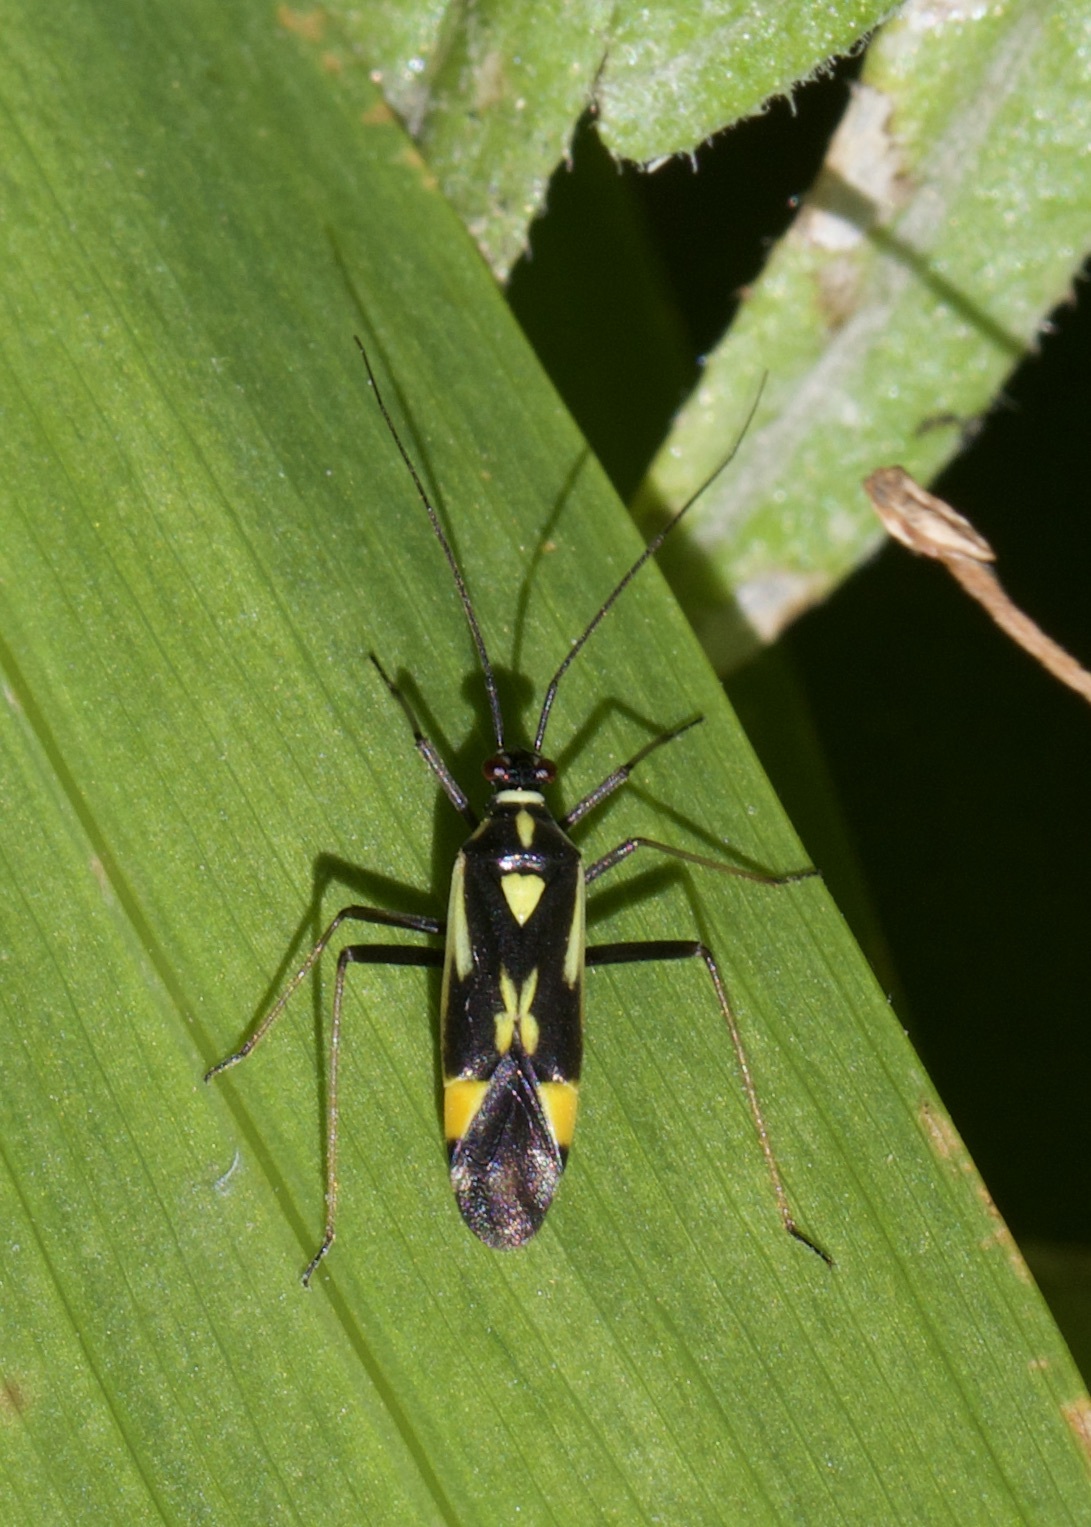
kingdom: Animalia
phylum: Arthropoda
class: Insecta
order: Hemiptera
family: Miridae
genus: Grypocoris
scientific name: Grypocoris stysi
